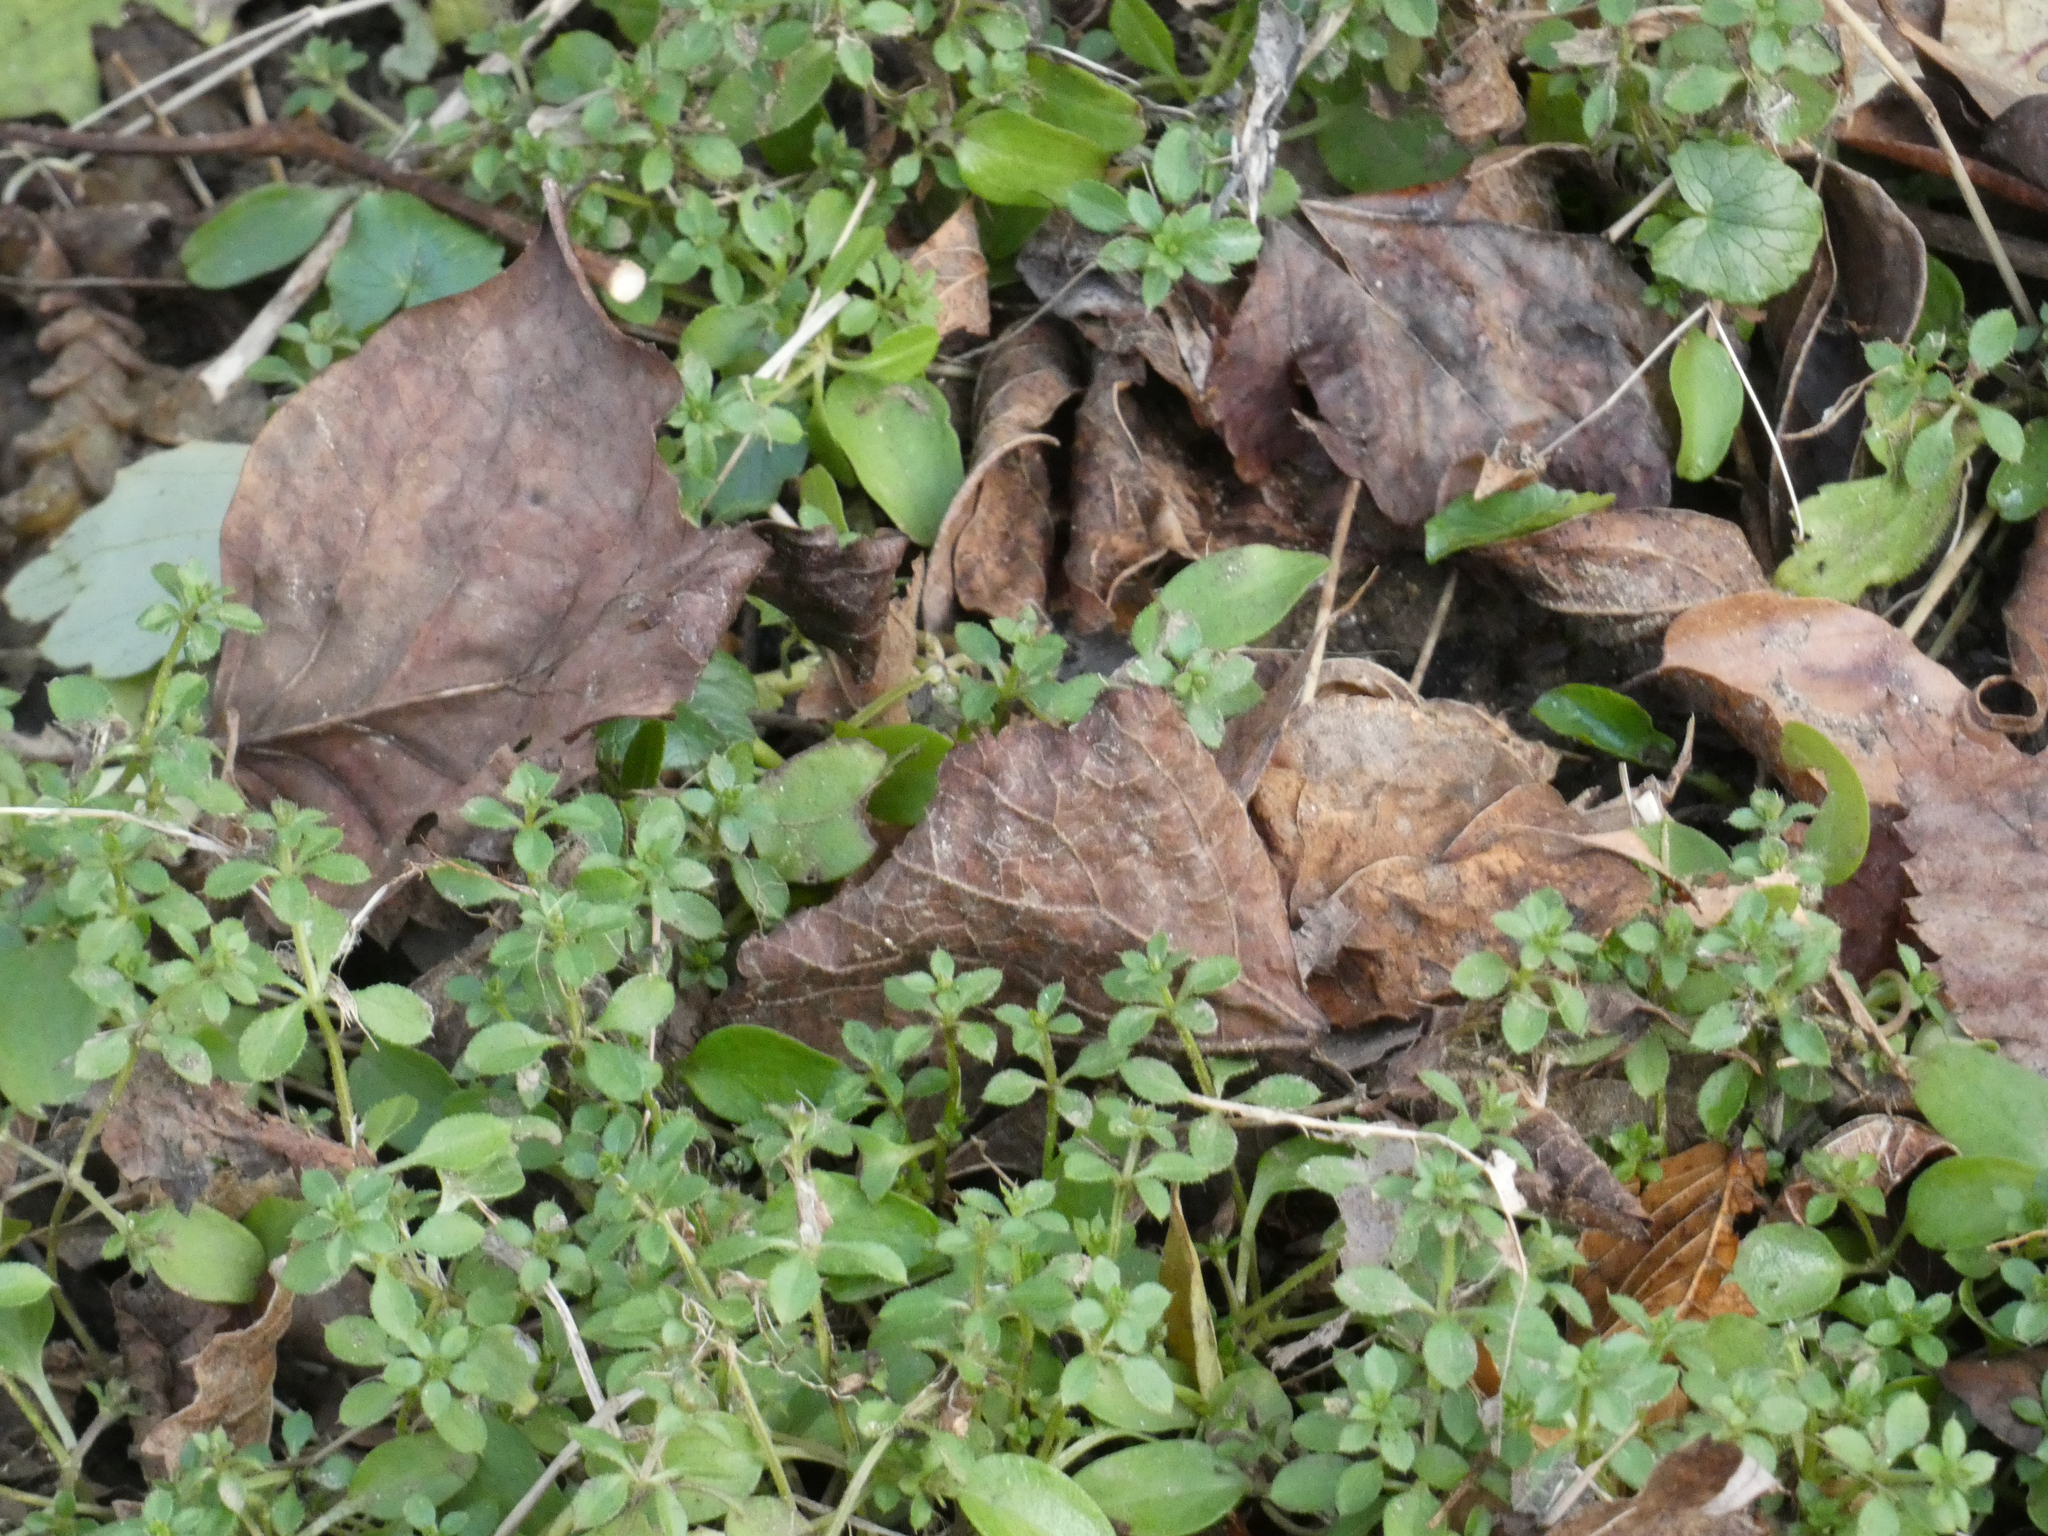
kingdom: Plantae
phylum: Tracheophyta
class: Magnoliopsida
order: Gentianales
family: Rubiaceae
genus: Galium
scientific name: Galium aparine
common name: Cleavers
